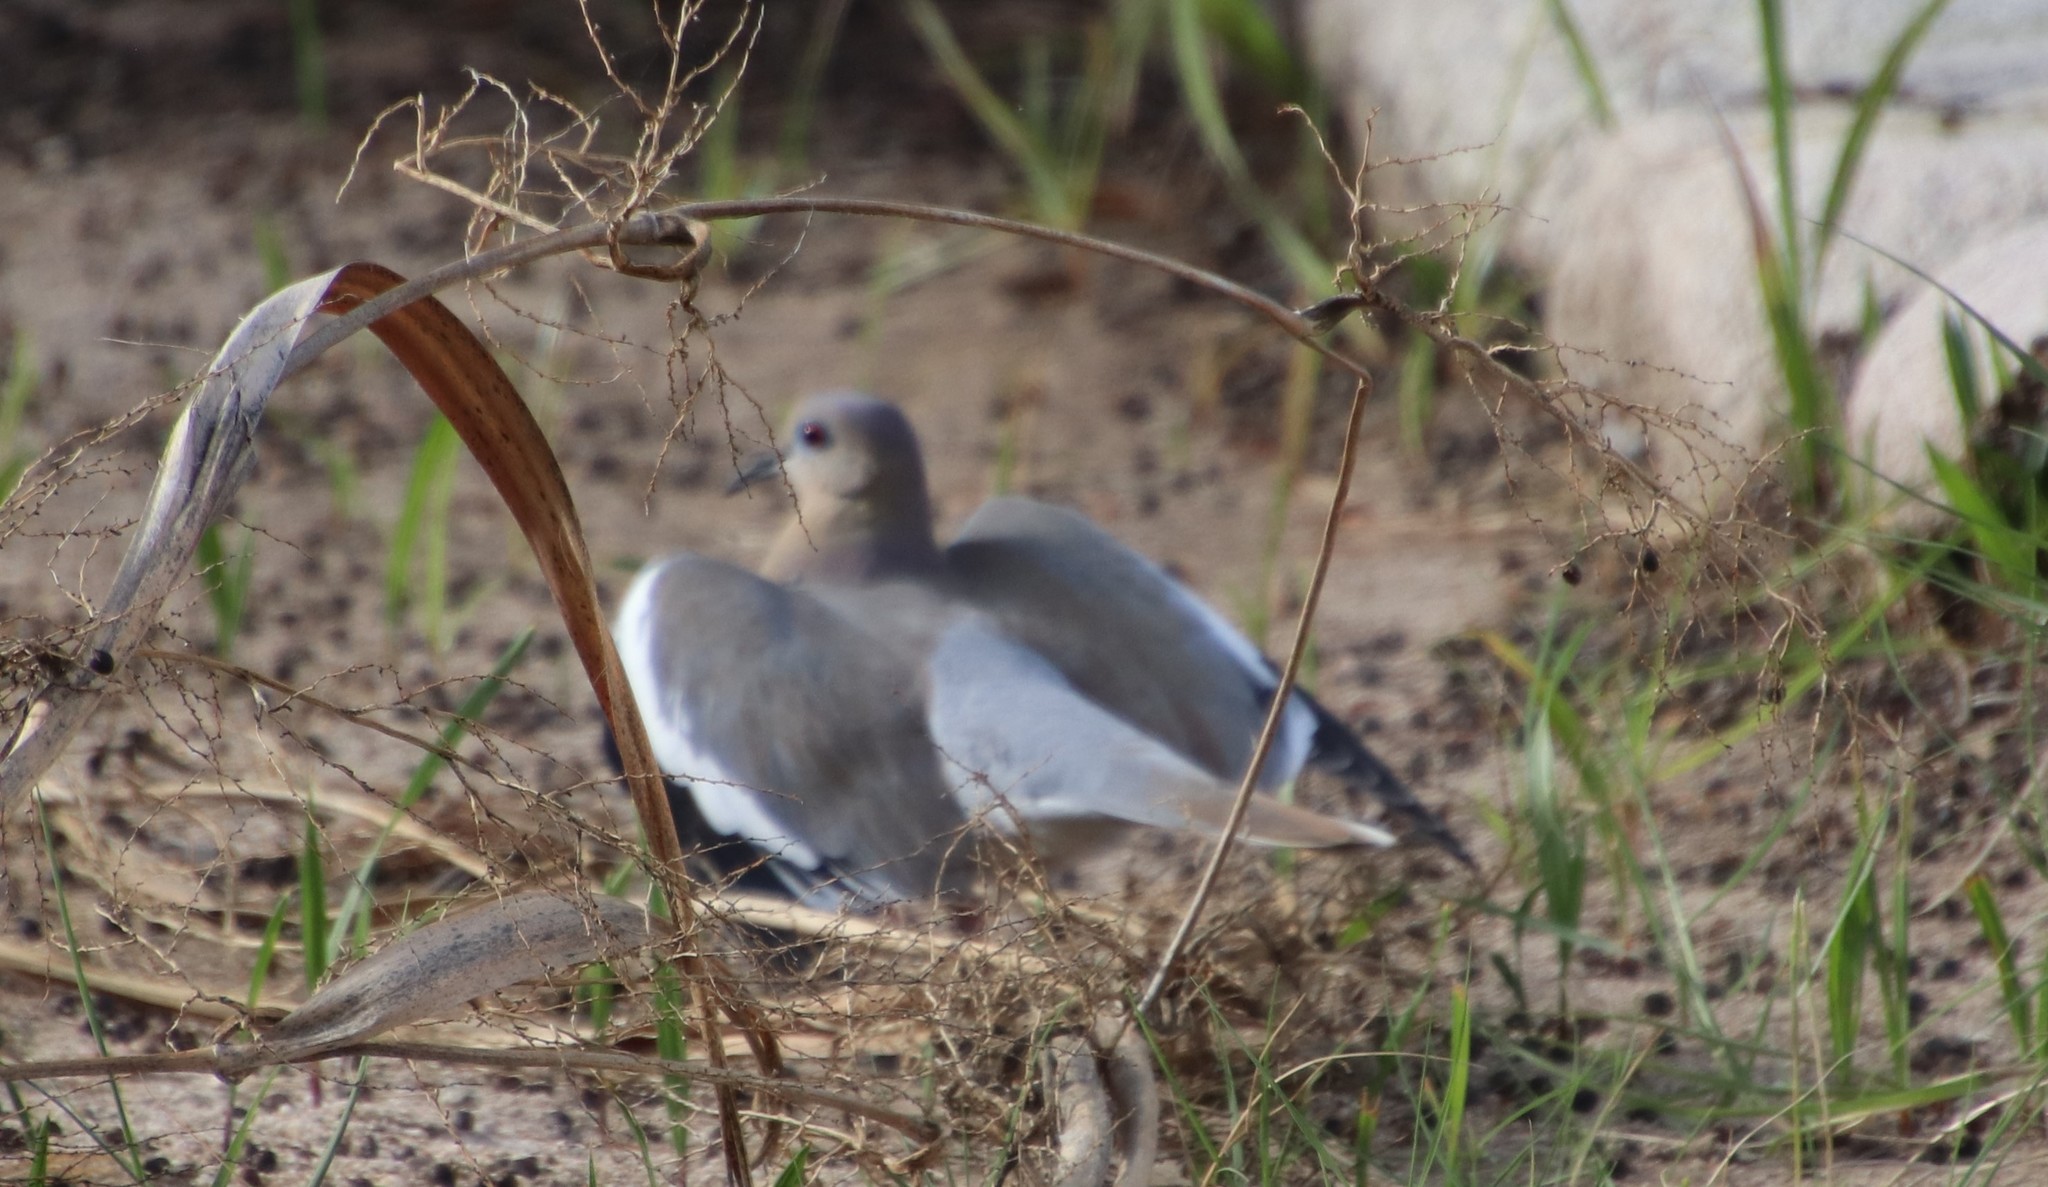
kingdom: Animalia
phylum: Chordata
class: Aves
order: Columbiformes
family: Columbidae
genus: Zenaida
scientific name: Zenaida asiatica
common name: White-winged dove
